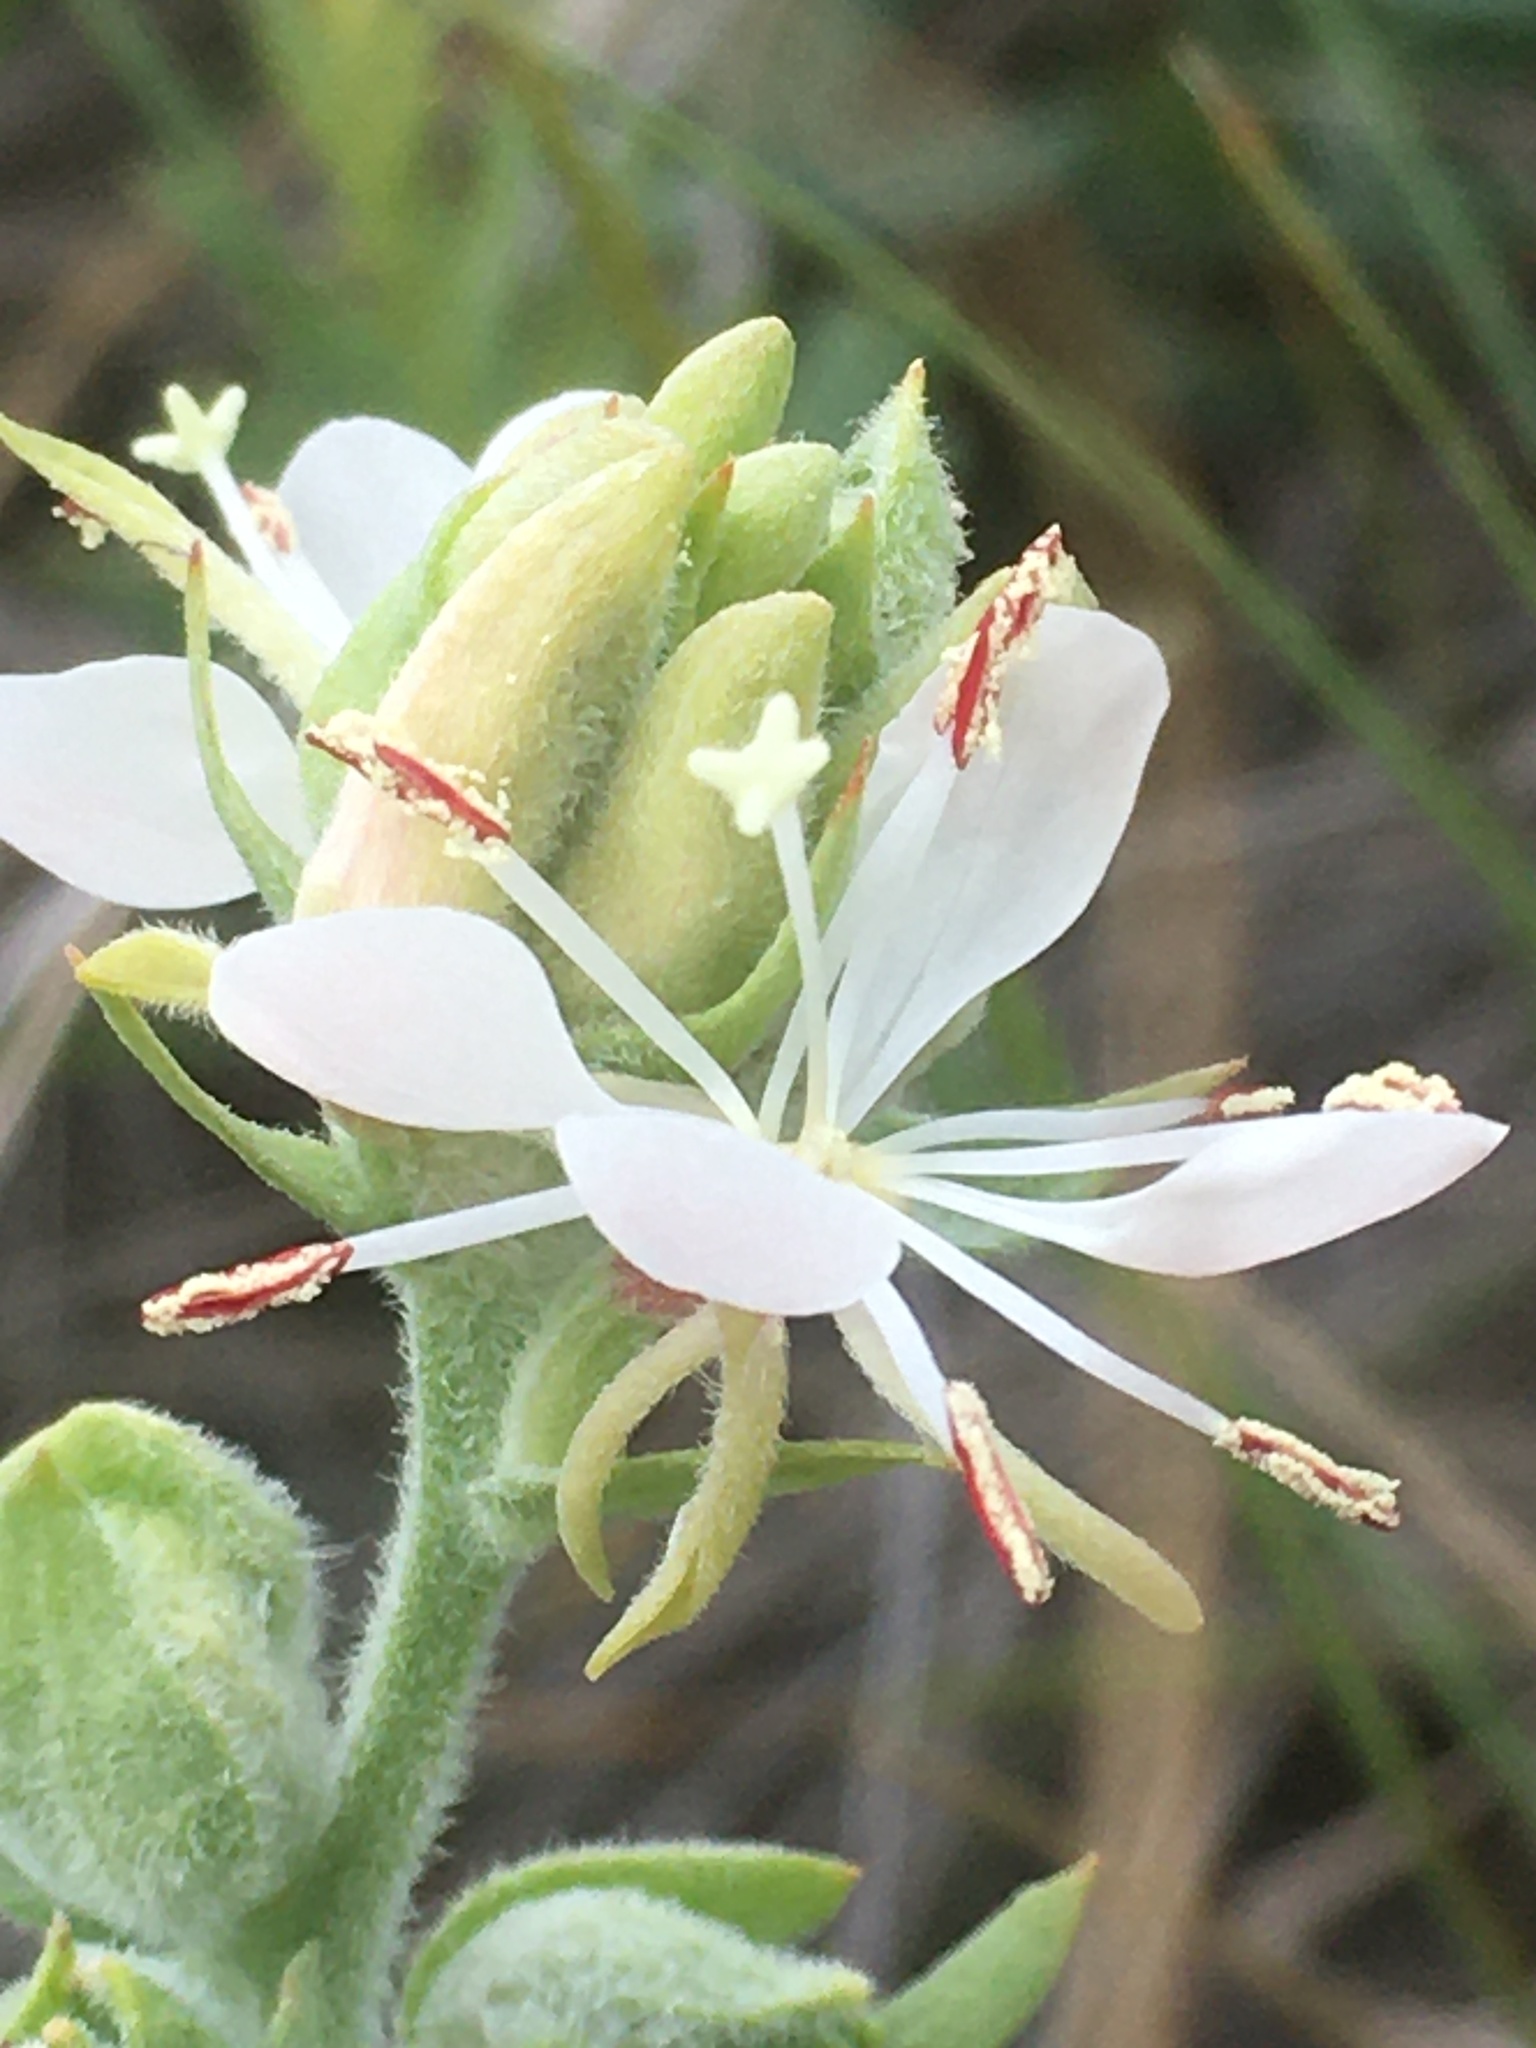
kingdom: Plantae
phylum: Tracheophyta
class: Magnoliopsida
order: Myrtales
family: Onagraceae
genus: Oenothera
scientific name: Oenothera suffrutescens
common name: Scarlet beeblossom
